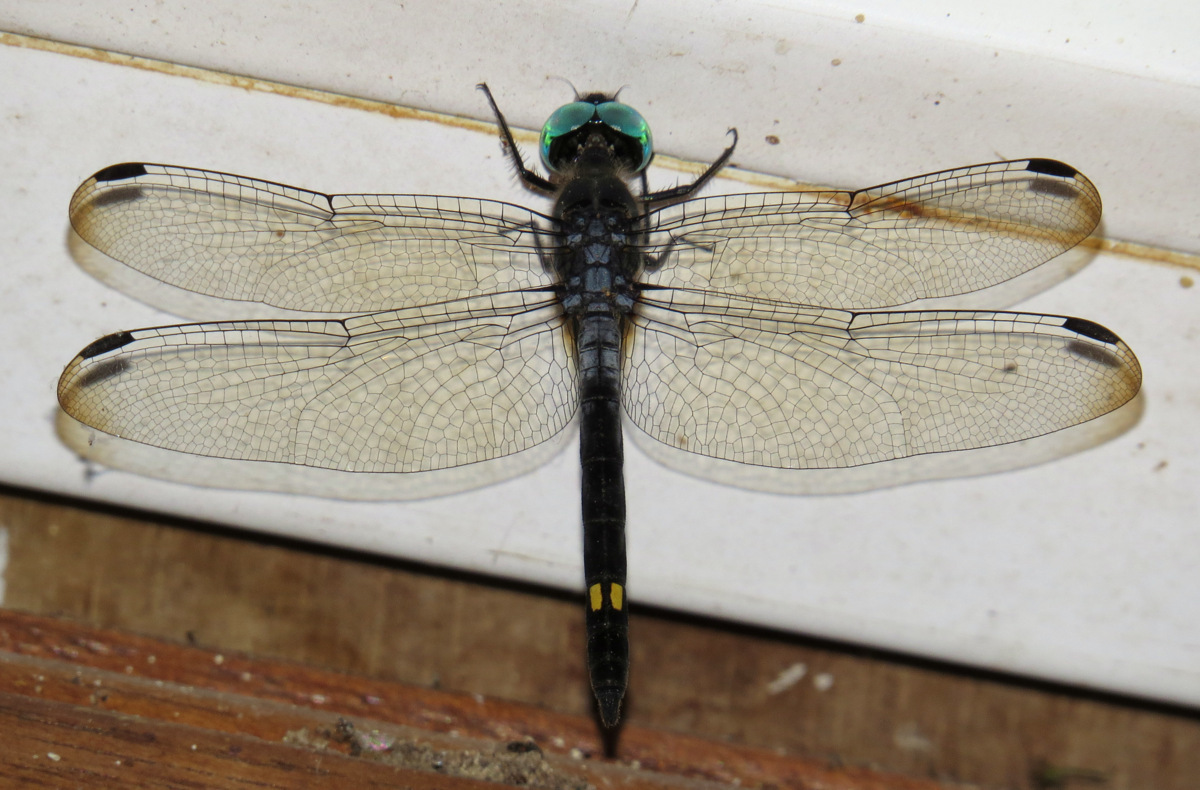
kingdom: Animalia
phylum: Arthropoda
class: Insecta
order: Odonata
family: Libellulidae
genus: Micrathyria
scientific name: Micrathyria atra
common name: Black dasher
